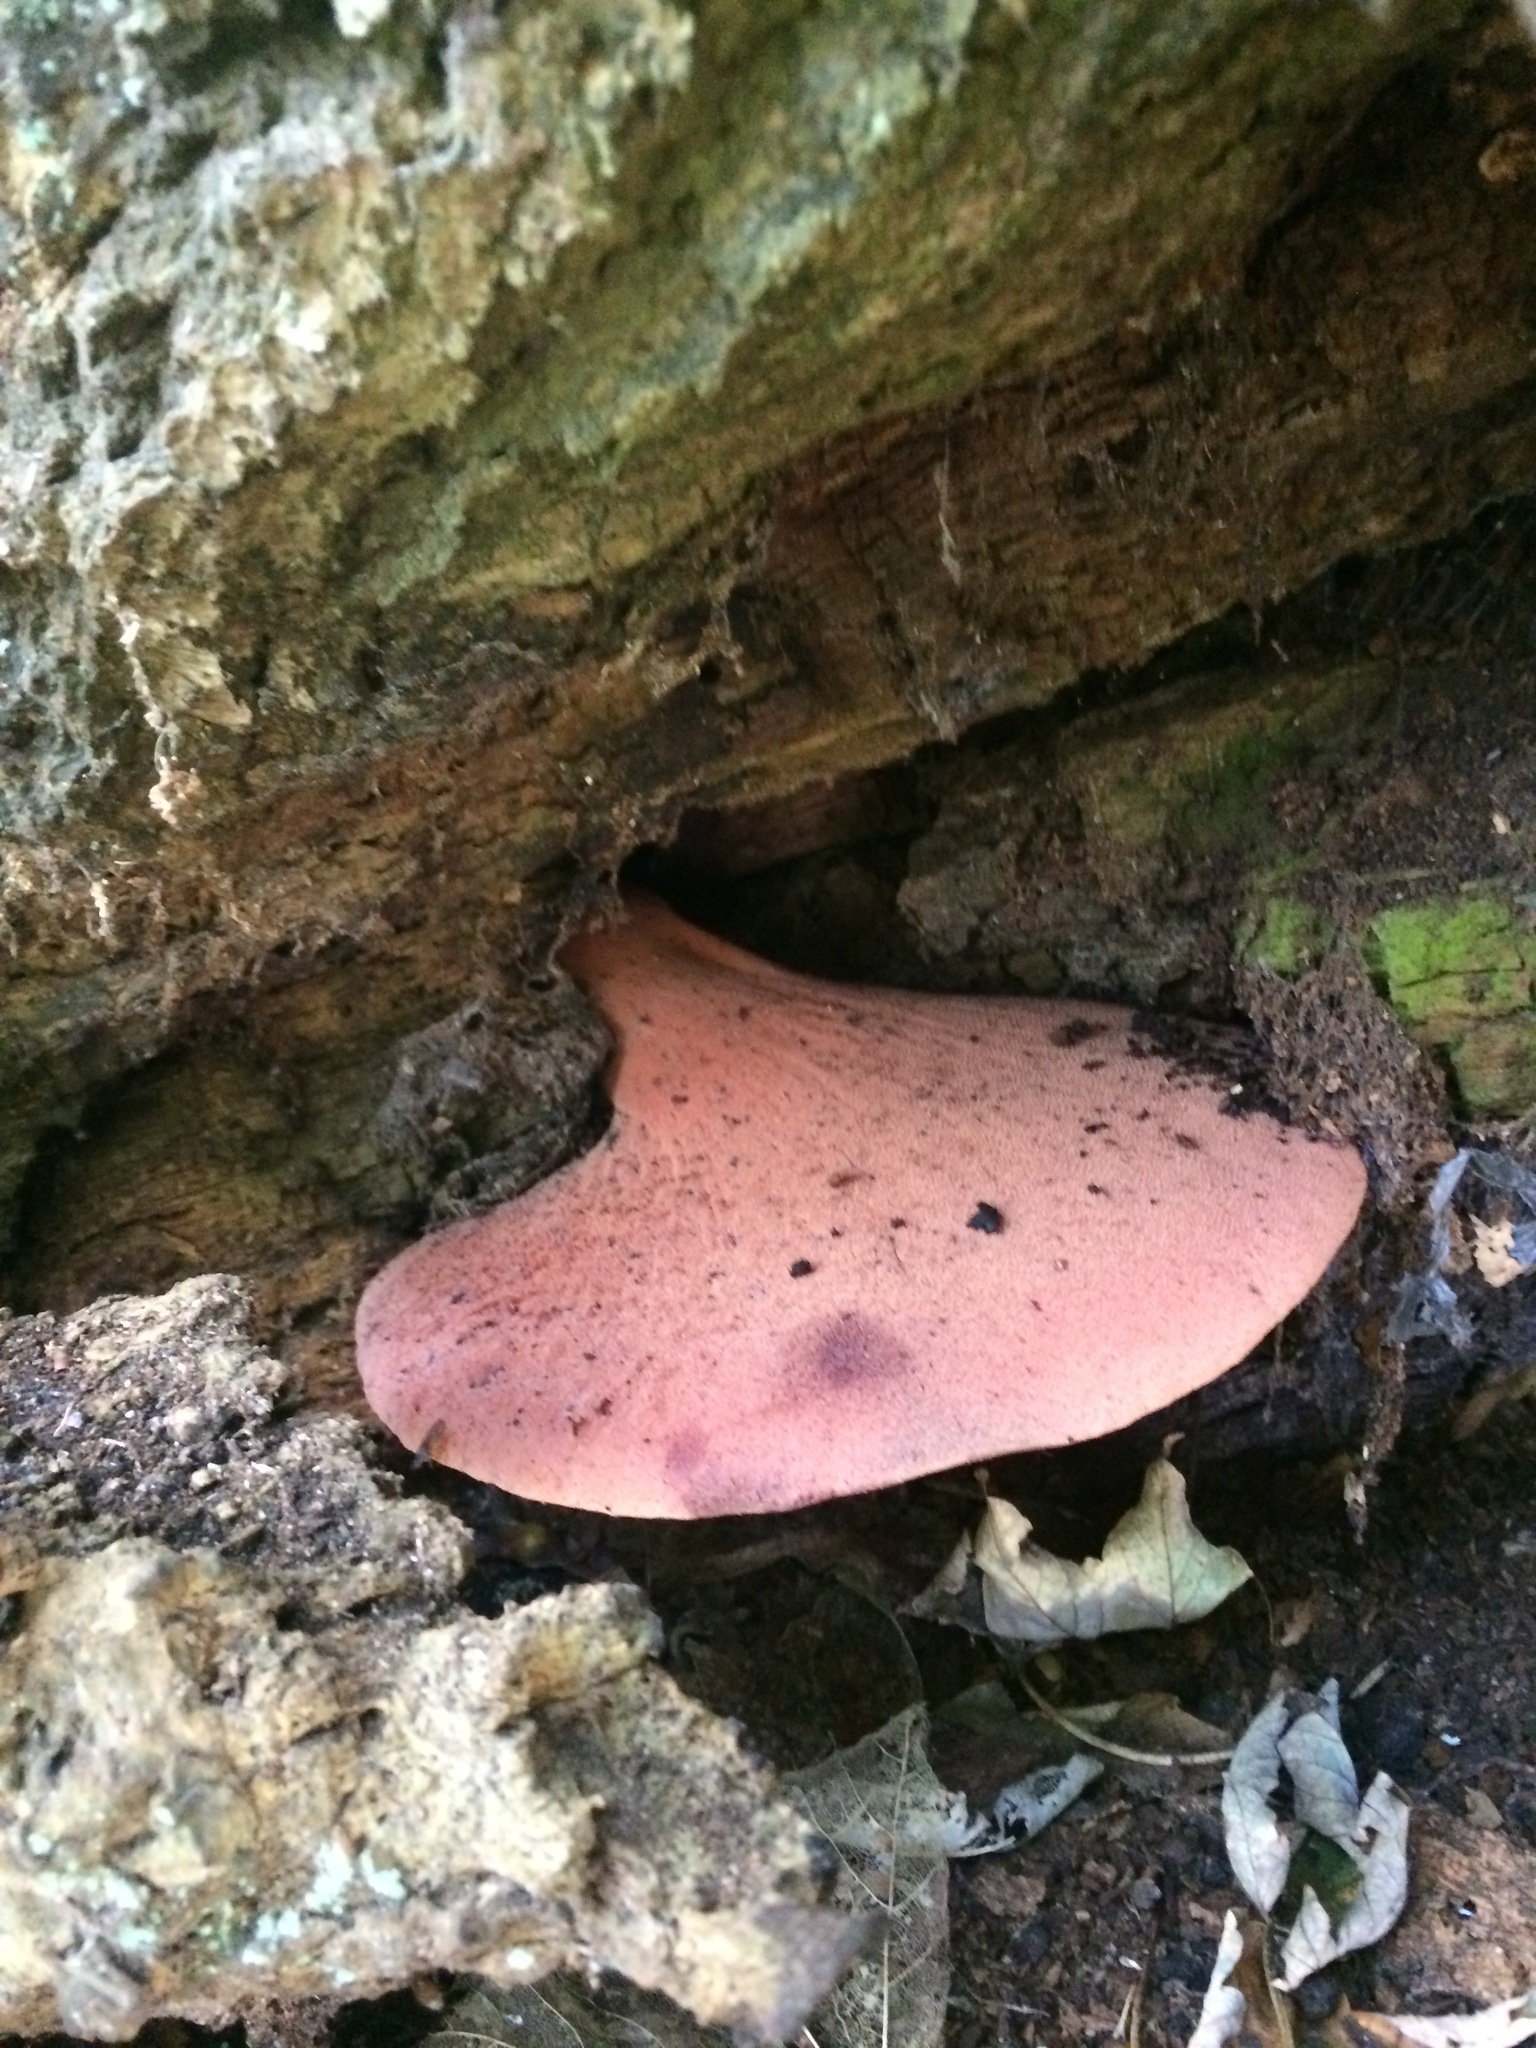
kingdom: Fungi
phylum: Basidiomycota
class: Agaricomycetes
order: Agaricales
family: Fistulinaceae
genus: Fistulina
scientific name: Fistulina hepatica
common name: Beef-steak fungus
